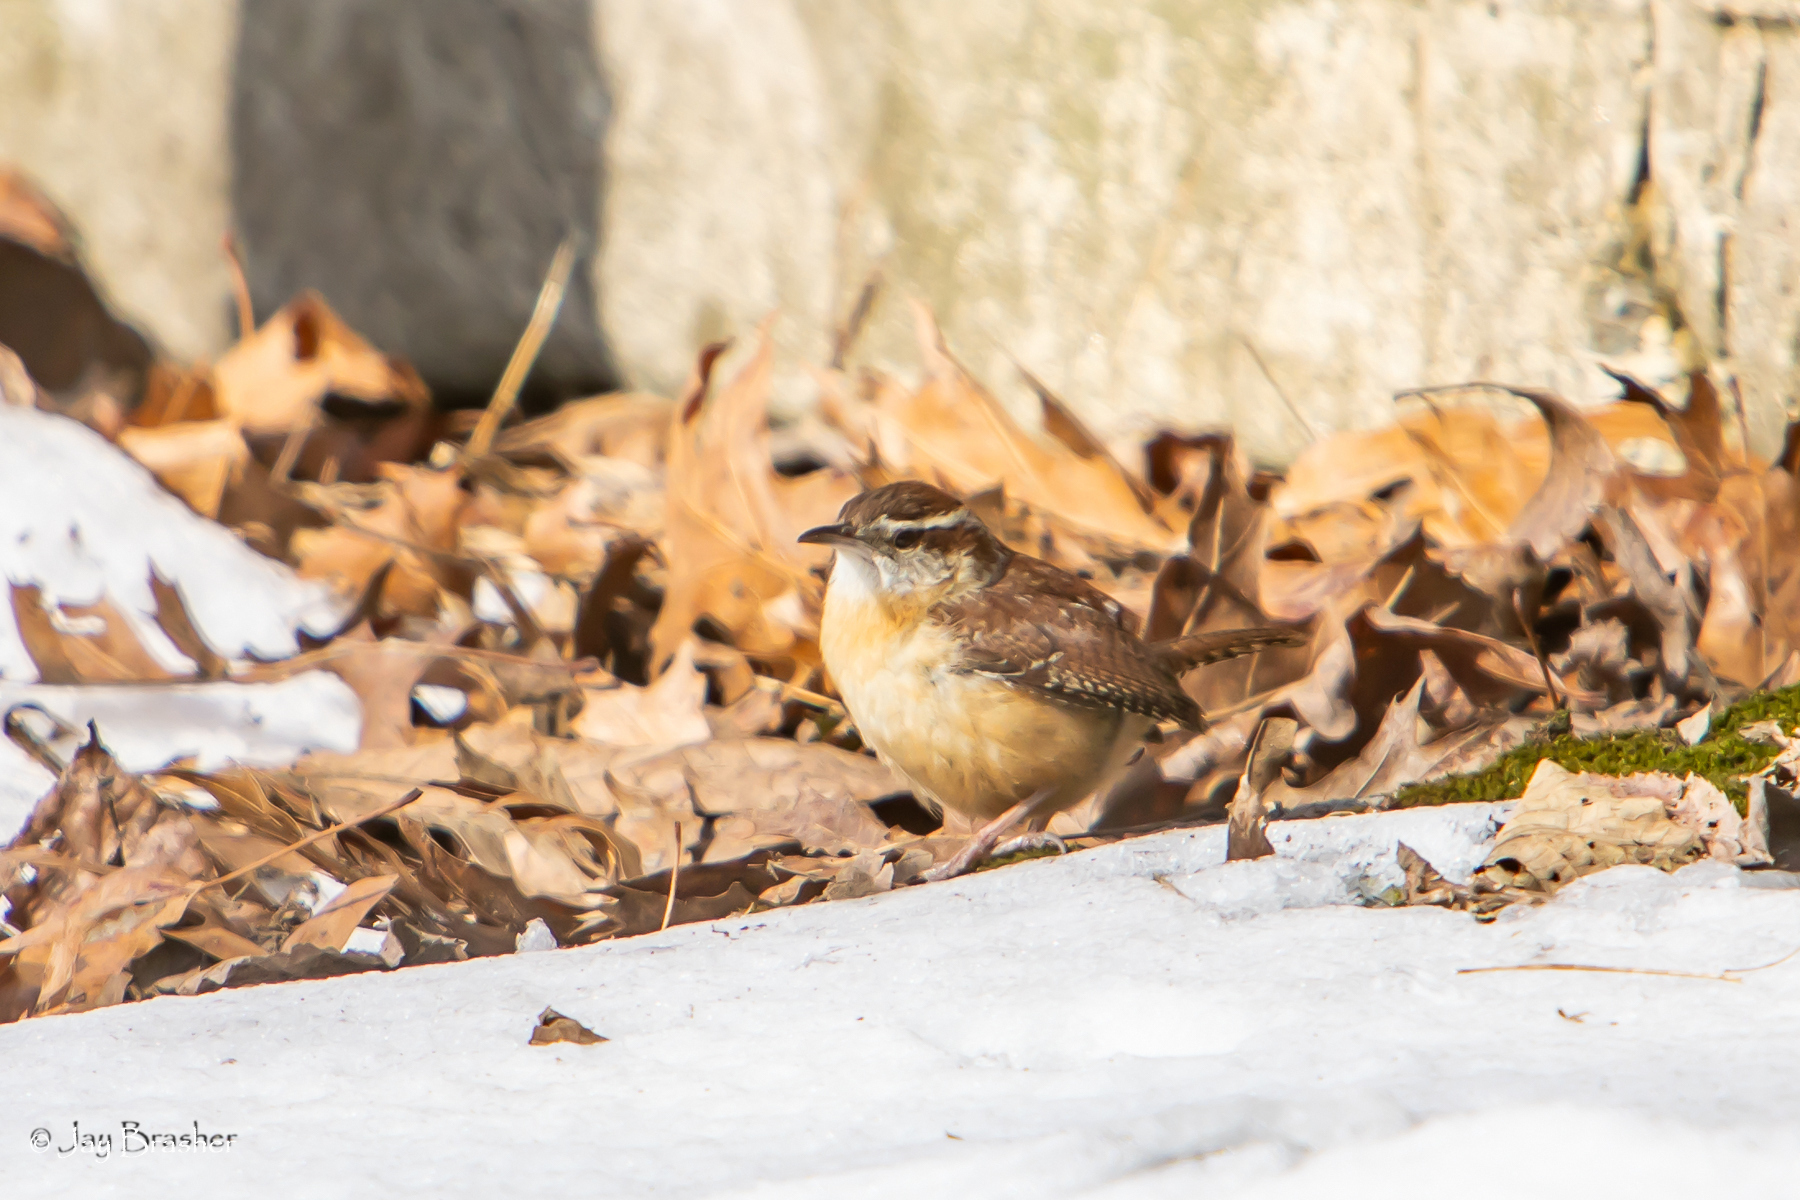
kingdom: Animalia
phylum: Chordata
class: Aves
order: Passeriformes
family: Troglodytidae
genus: Thryothorus
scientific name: Thryothorus ludovicianus
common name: Carolina wren
